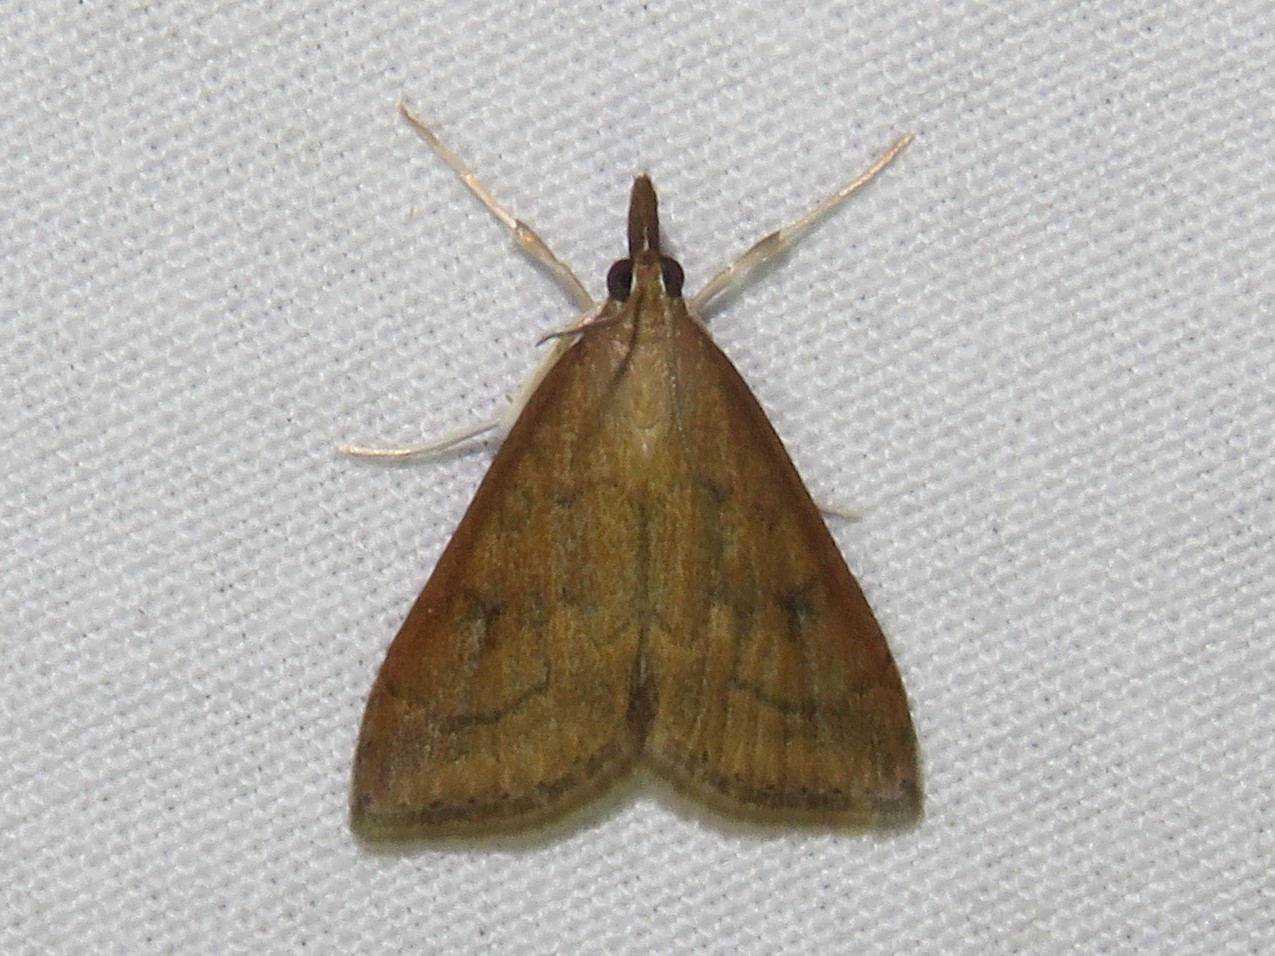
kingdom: Animalia
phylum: Arthropoda
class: Insecta
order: Lepidoptera
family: Crambidae
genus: Udea
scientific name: Udea rubigalis
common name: Celery leaftier moth
